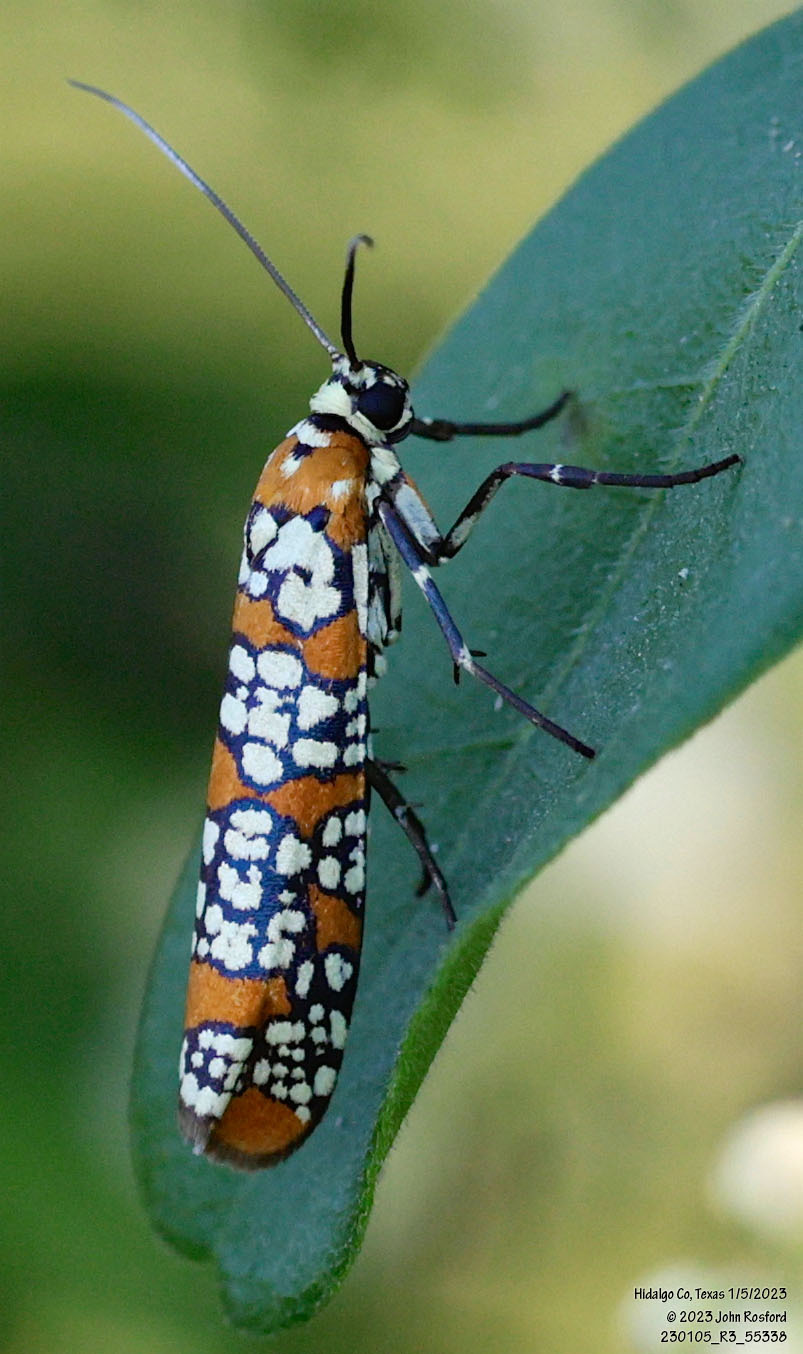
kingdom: Animalia
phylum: Arthropoda
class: Insecta
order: Lepidoptera
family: Attevidae
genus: Atteva
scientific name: Atteva punctella
